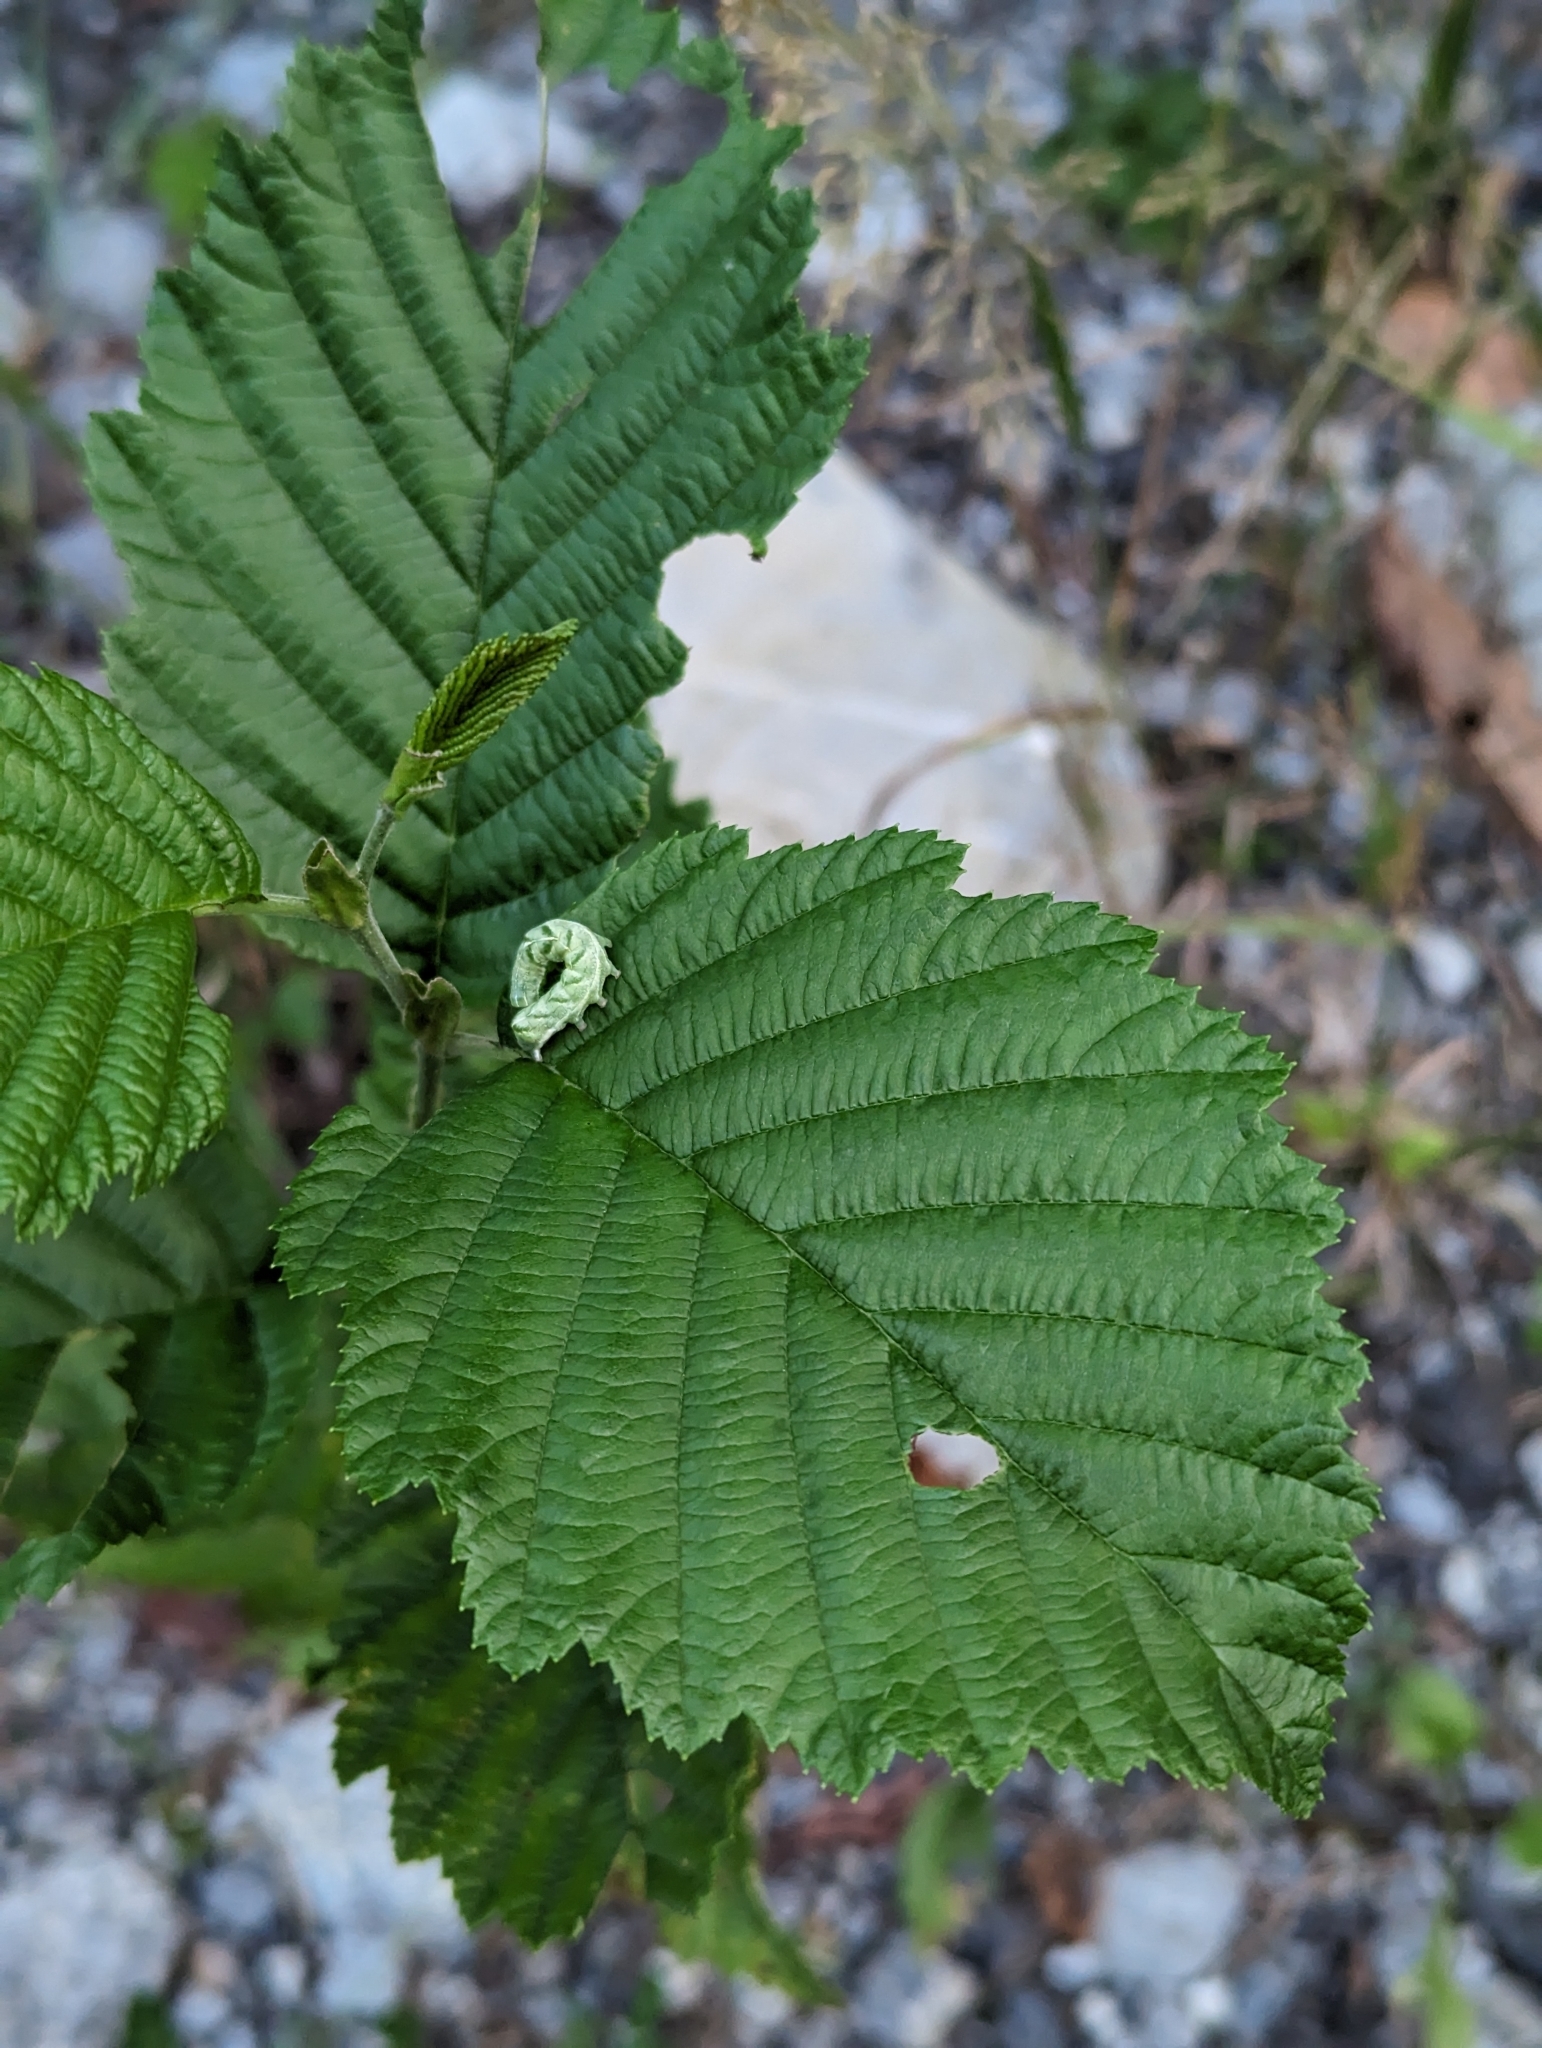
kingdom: Animalia
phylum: Arthropoda
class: Insecta
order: Lepidoptera
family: Noctuidae
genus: Melanchra
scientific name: Melanchra persicariae
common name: Dot moth
